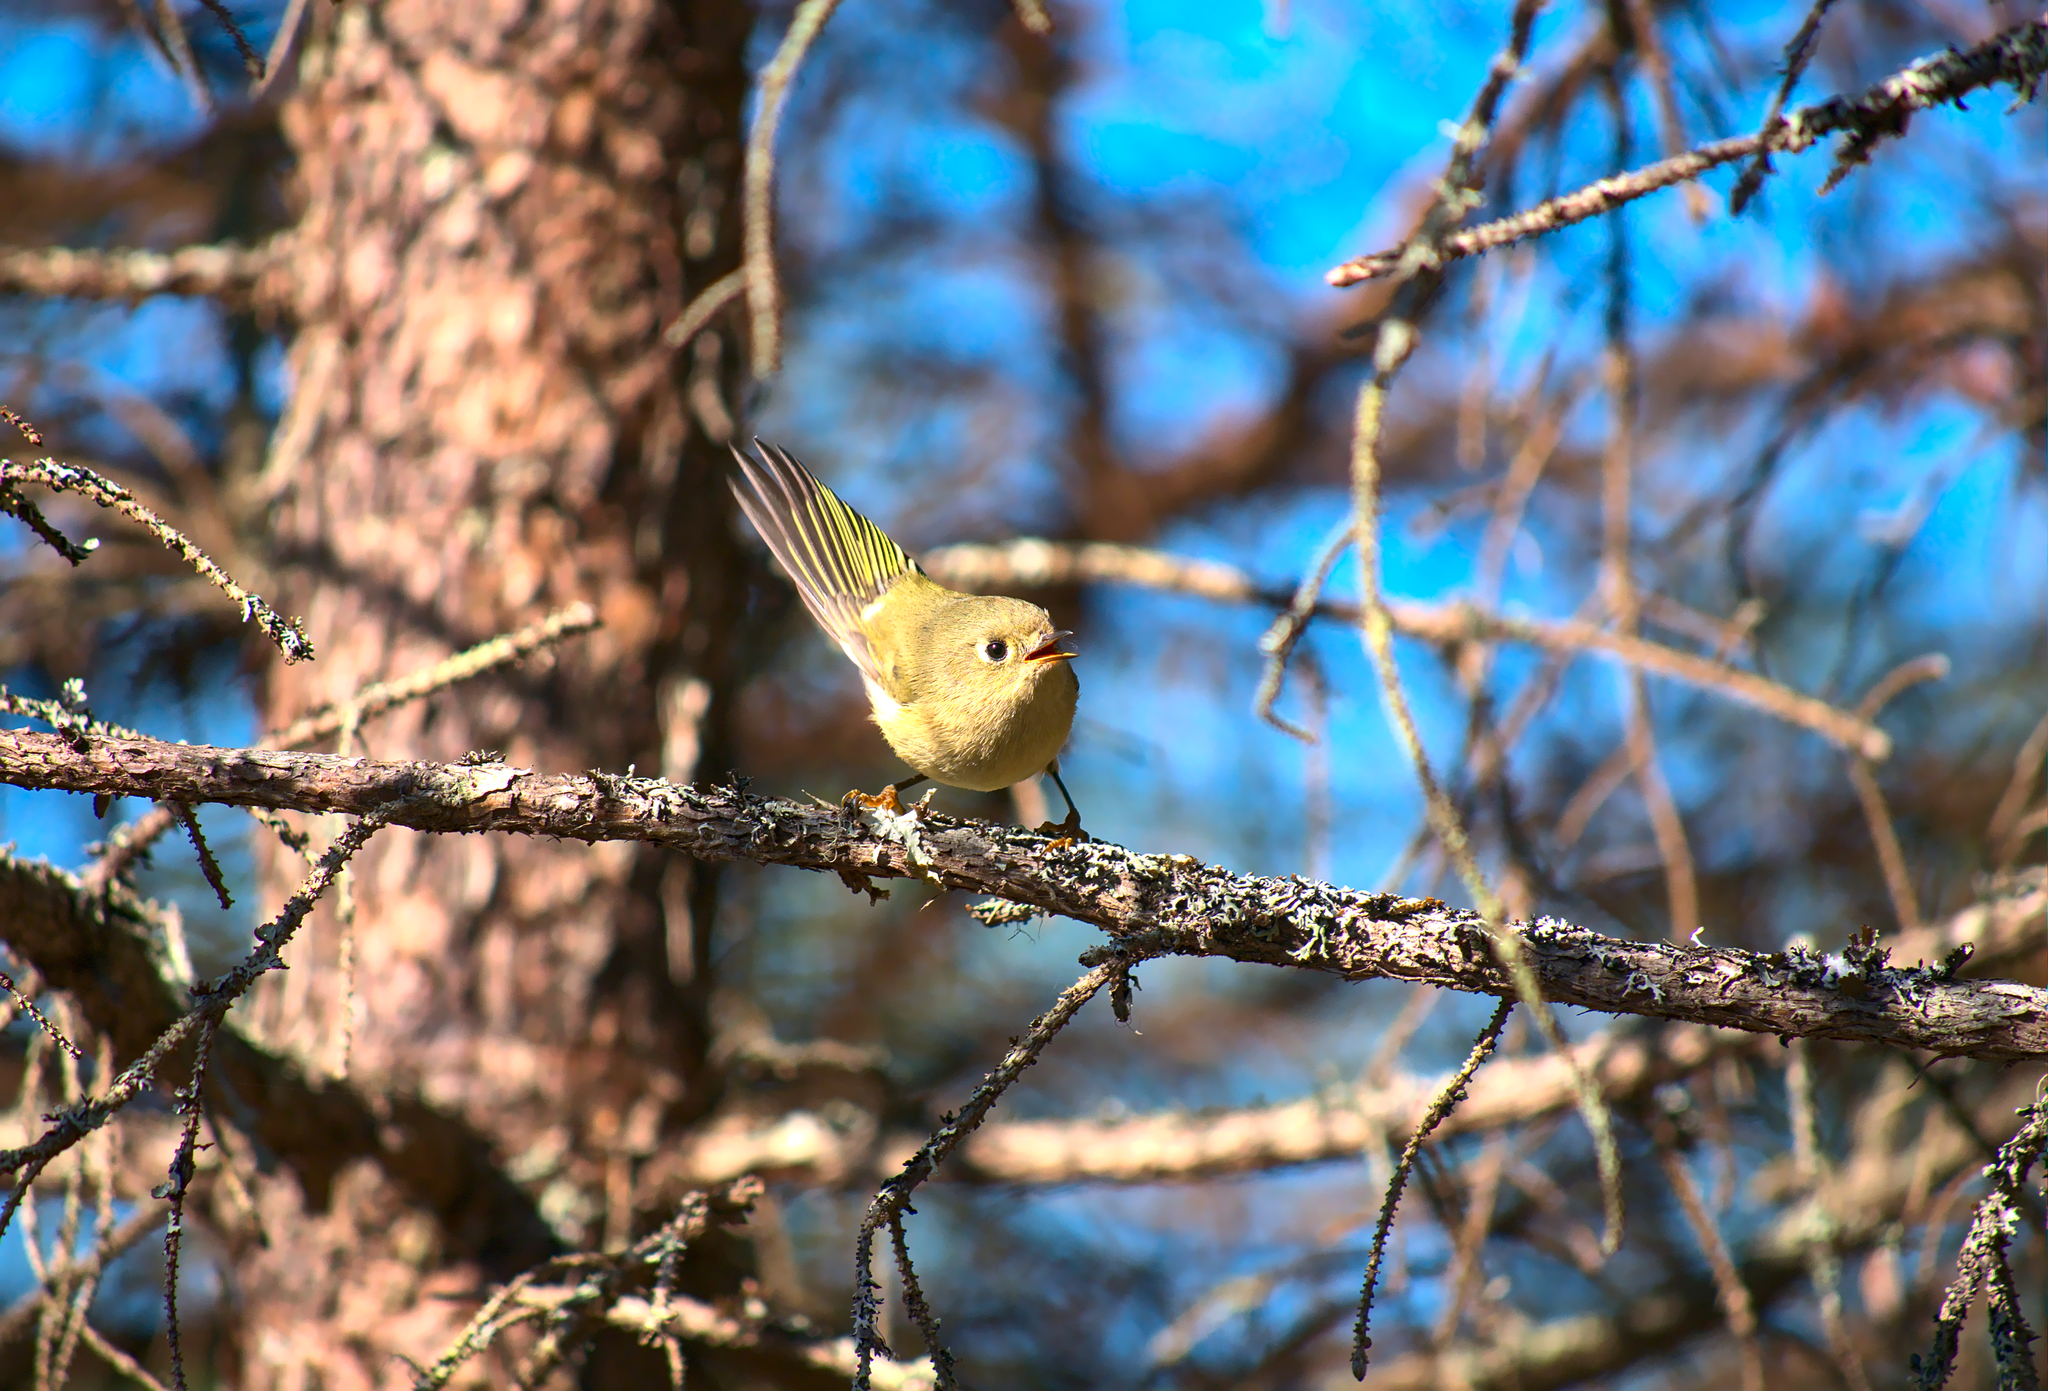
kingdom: Animalia
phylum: Chordata
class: Aves
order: Passeriformes
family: Regulidae
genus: Regulus
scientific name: Regulus calendula
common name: Ruby-crowned kinglet
